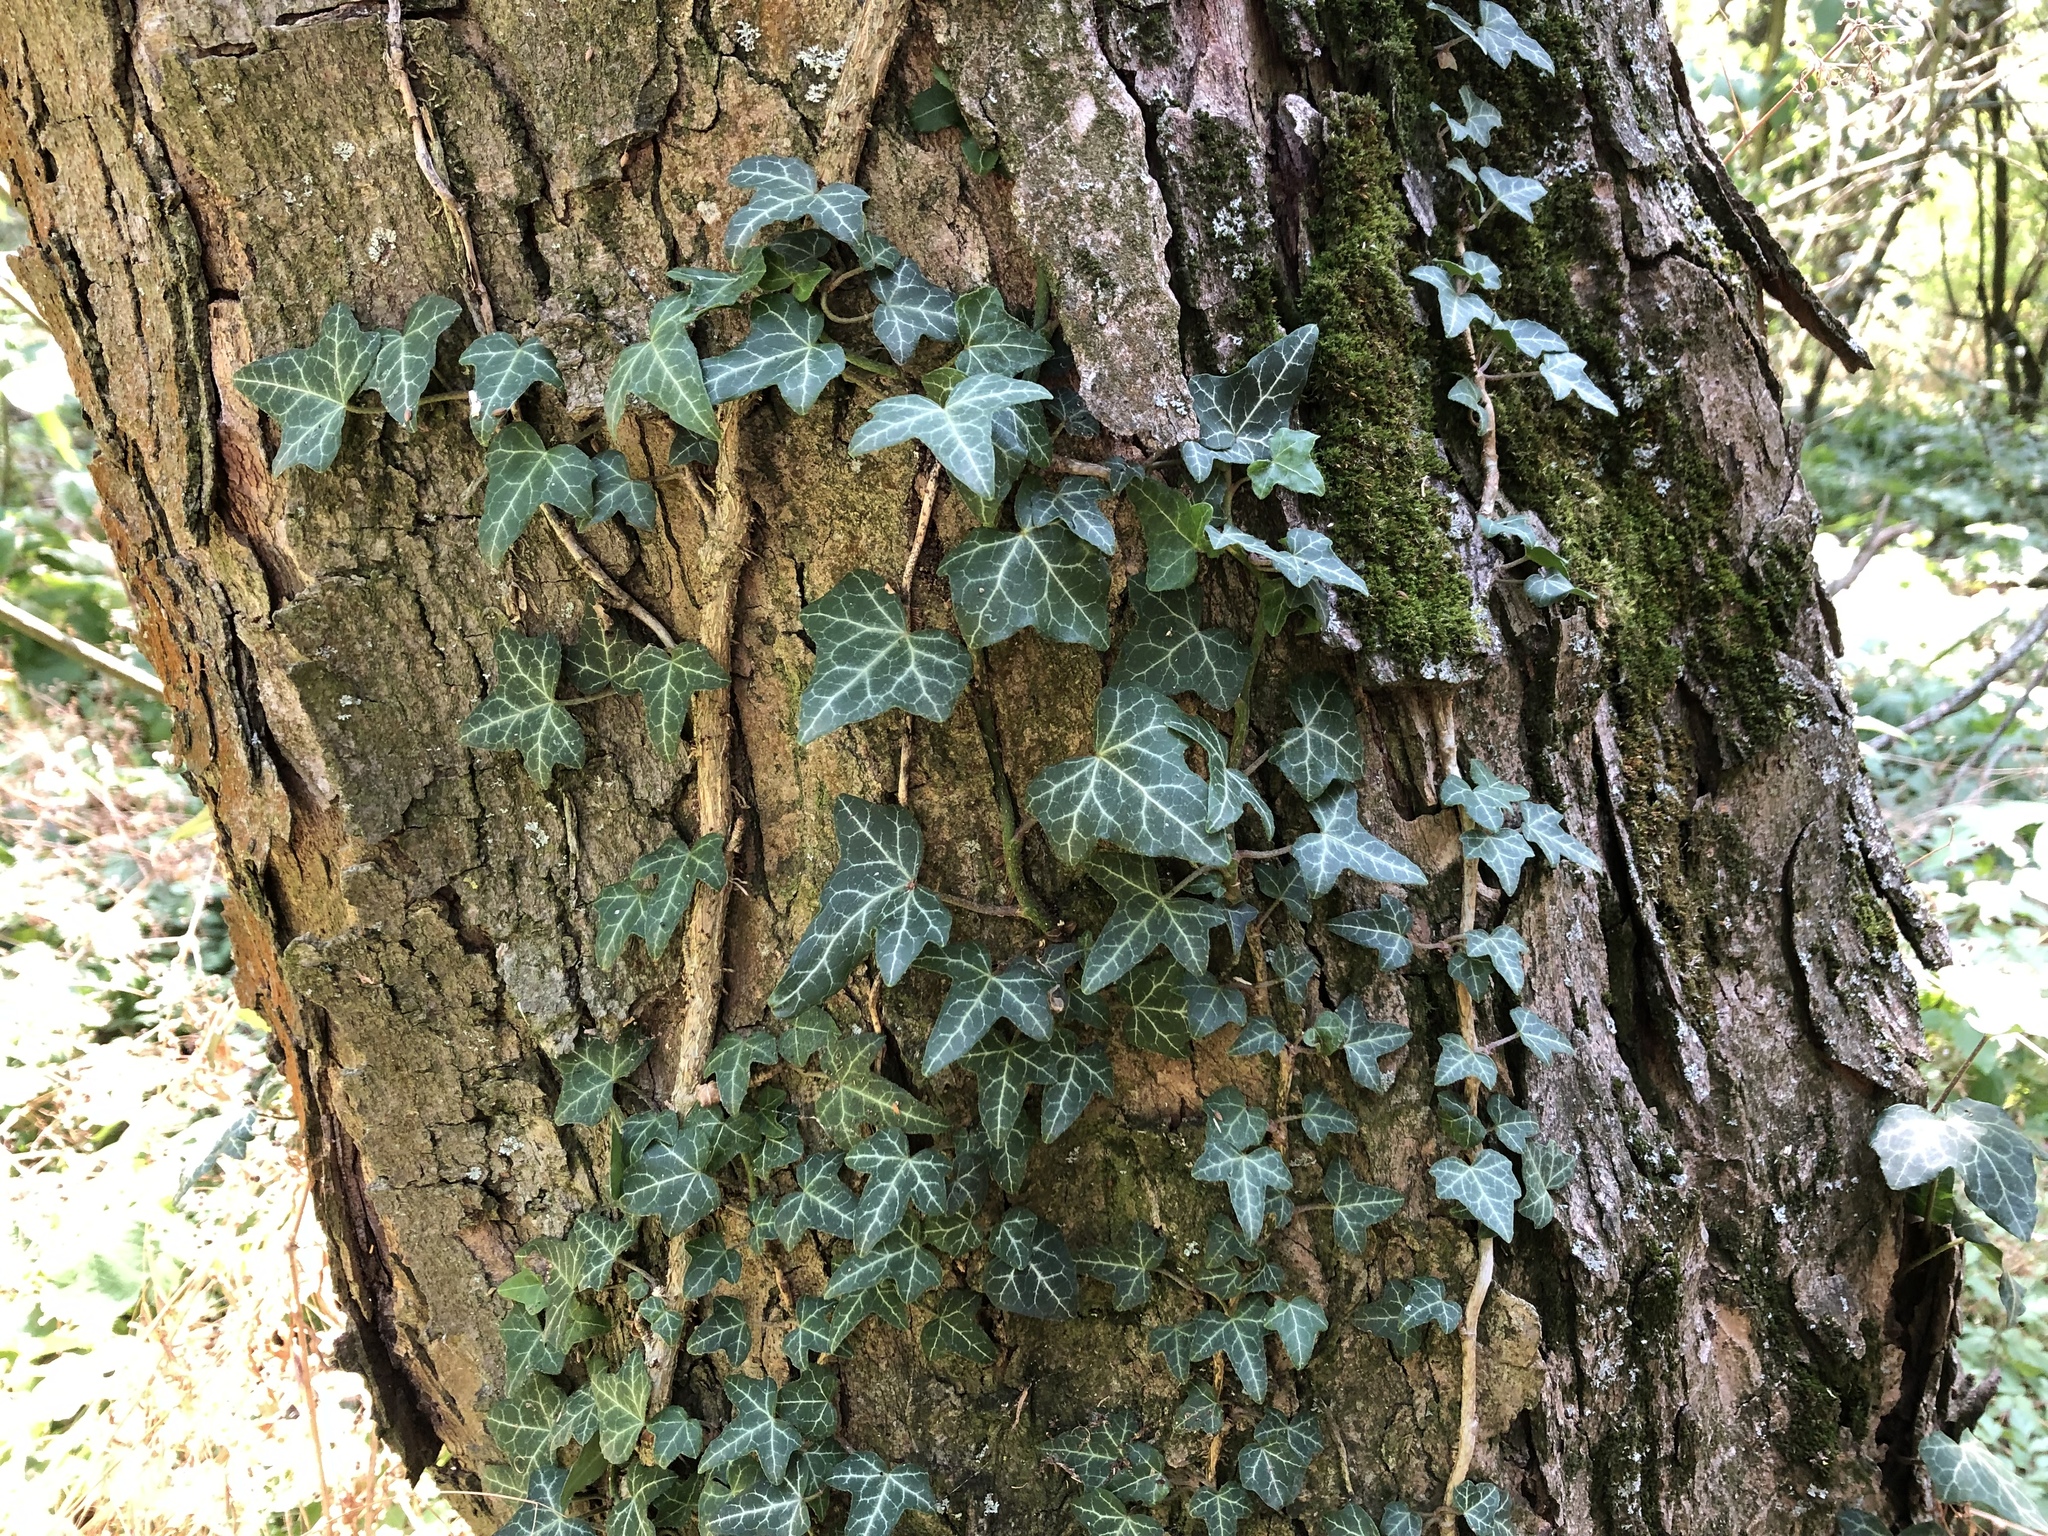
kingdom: Plantae
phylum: Tracheophyta
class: Magnoliopsida
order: Apiales
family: Araliaceae
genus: Hedera
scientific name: Hedera helix
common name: Ivy
